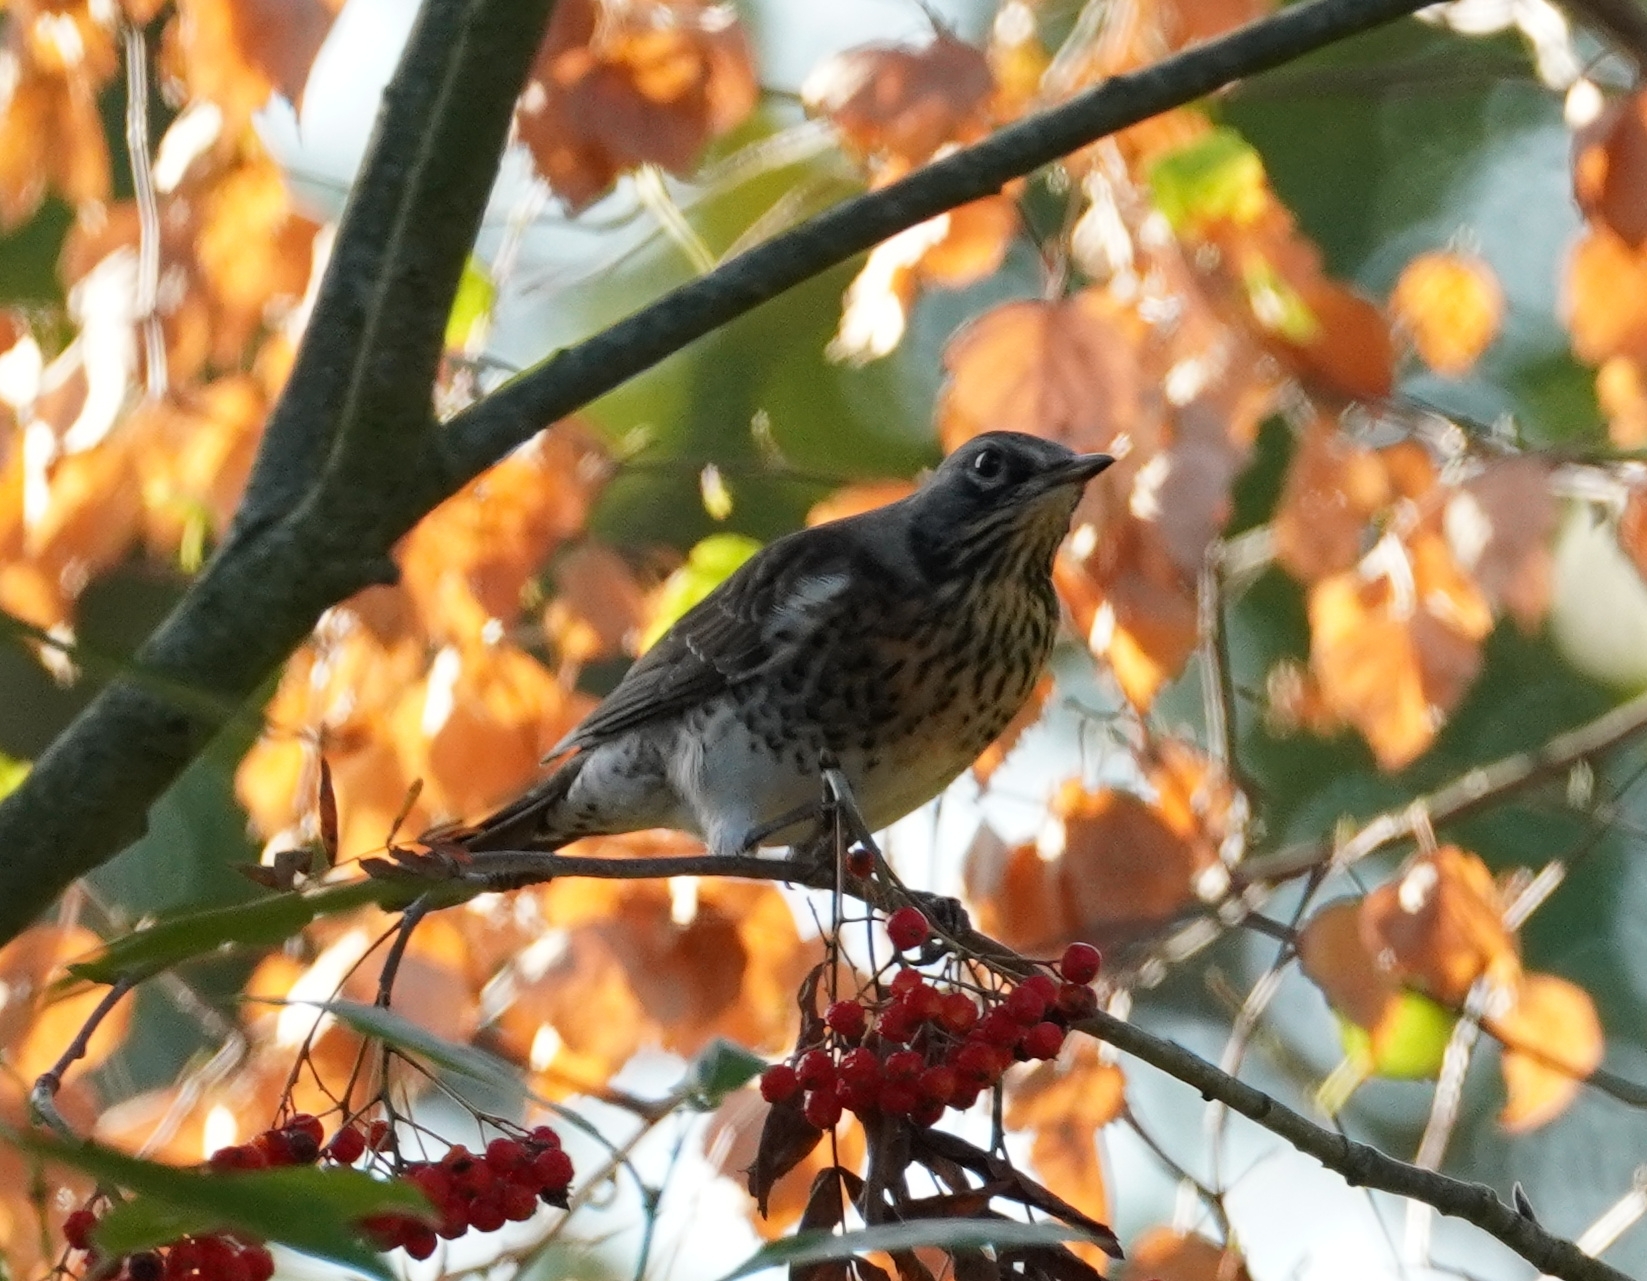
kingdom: Animalia
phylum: Chordata
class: Aves
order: Passeriformes
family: Turdidae
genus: Turdus
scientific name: Turdus pilaris
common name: Fieldfare
